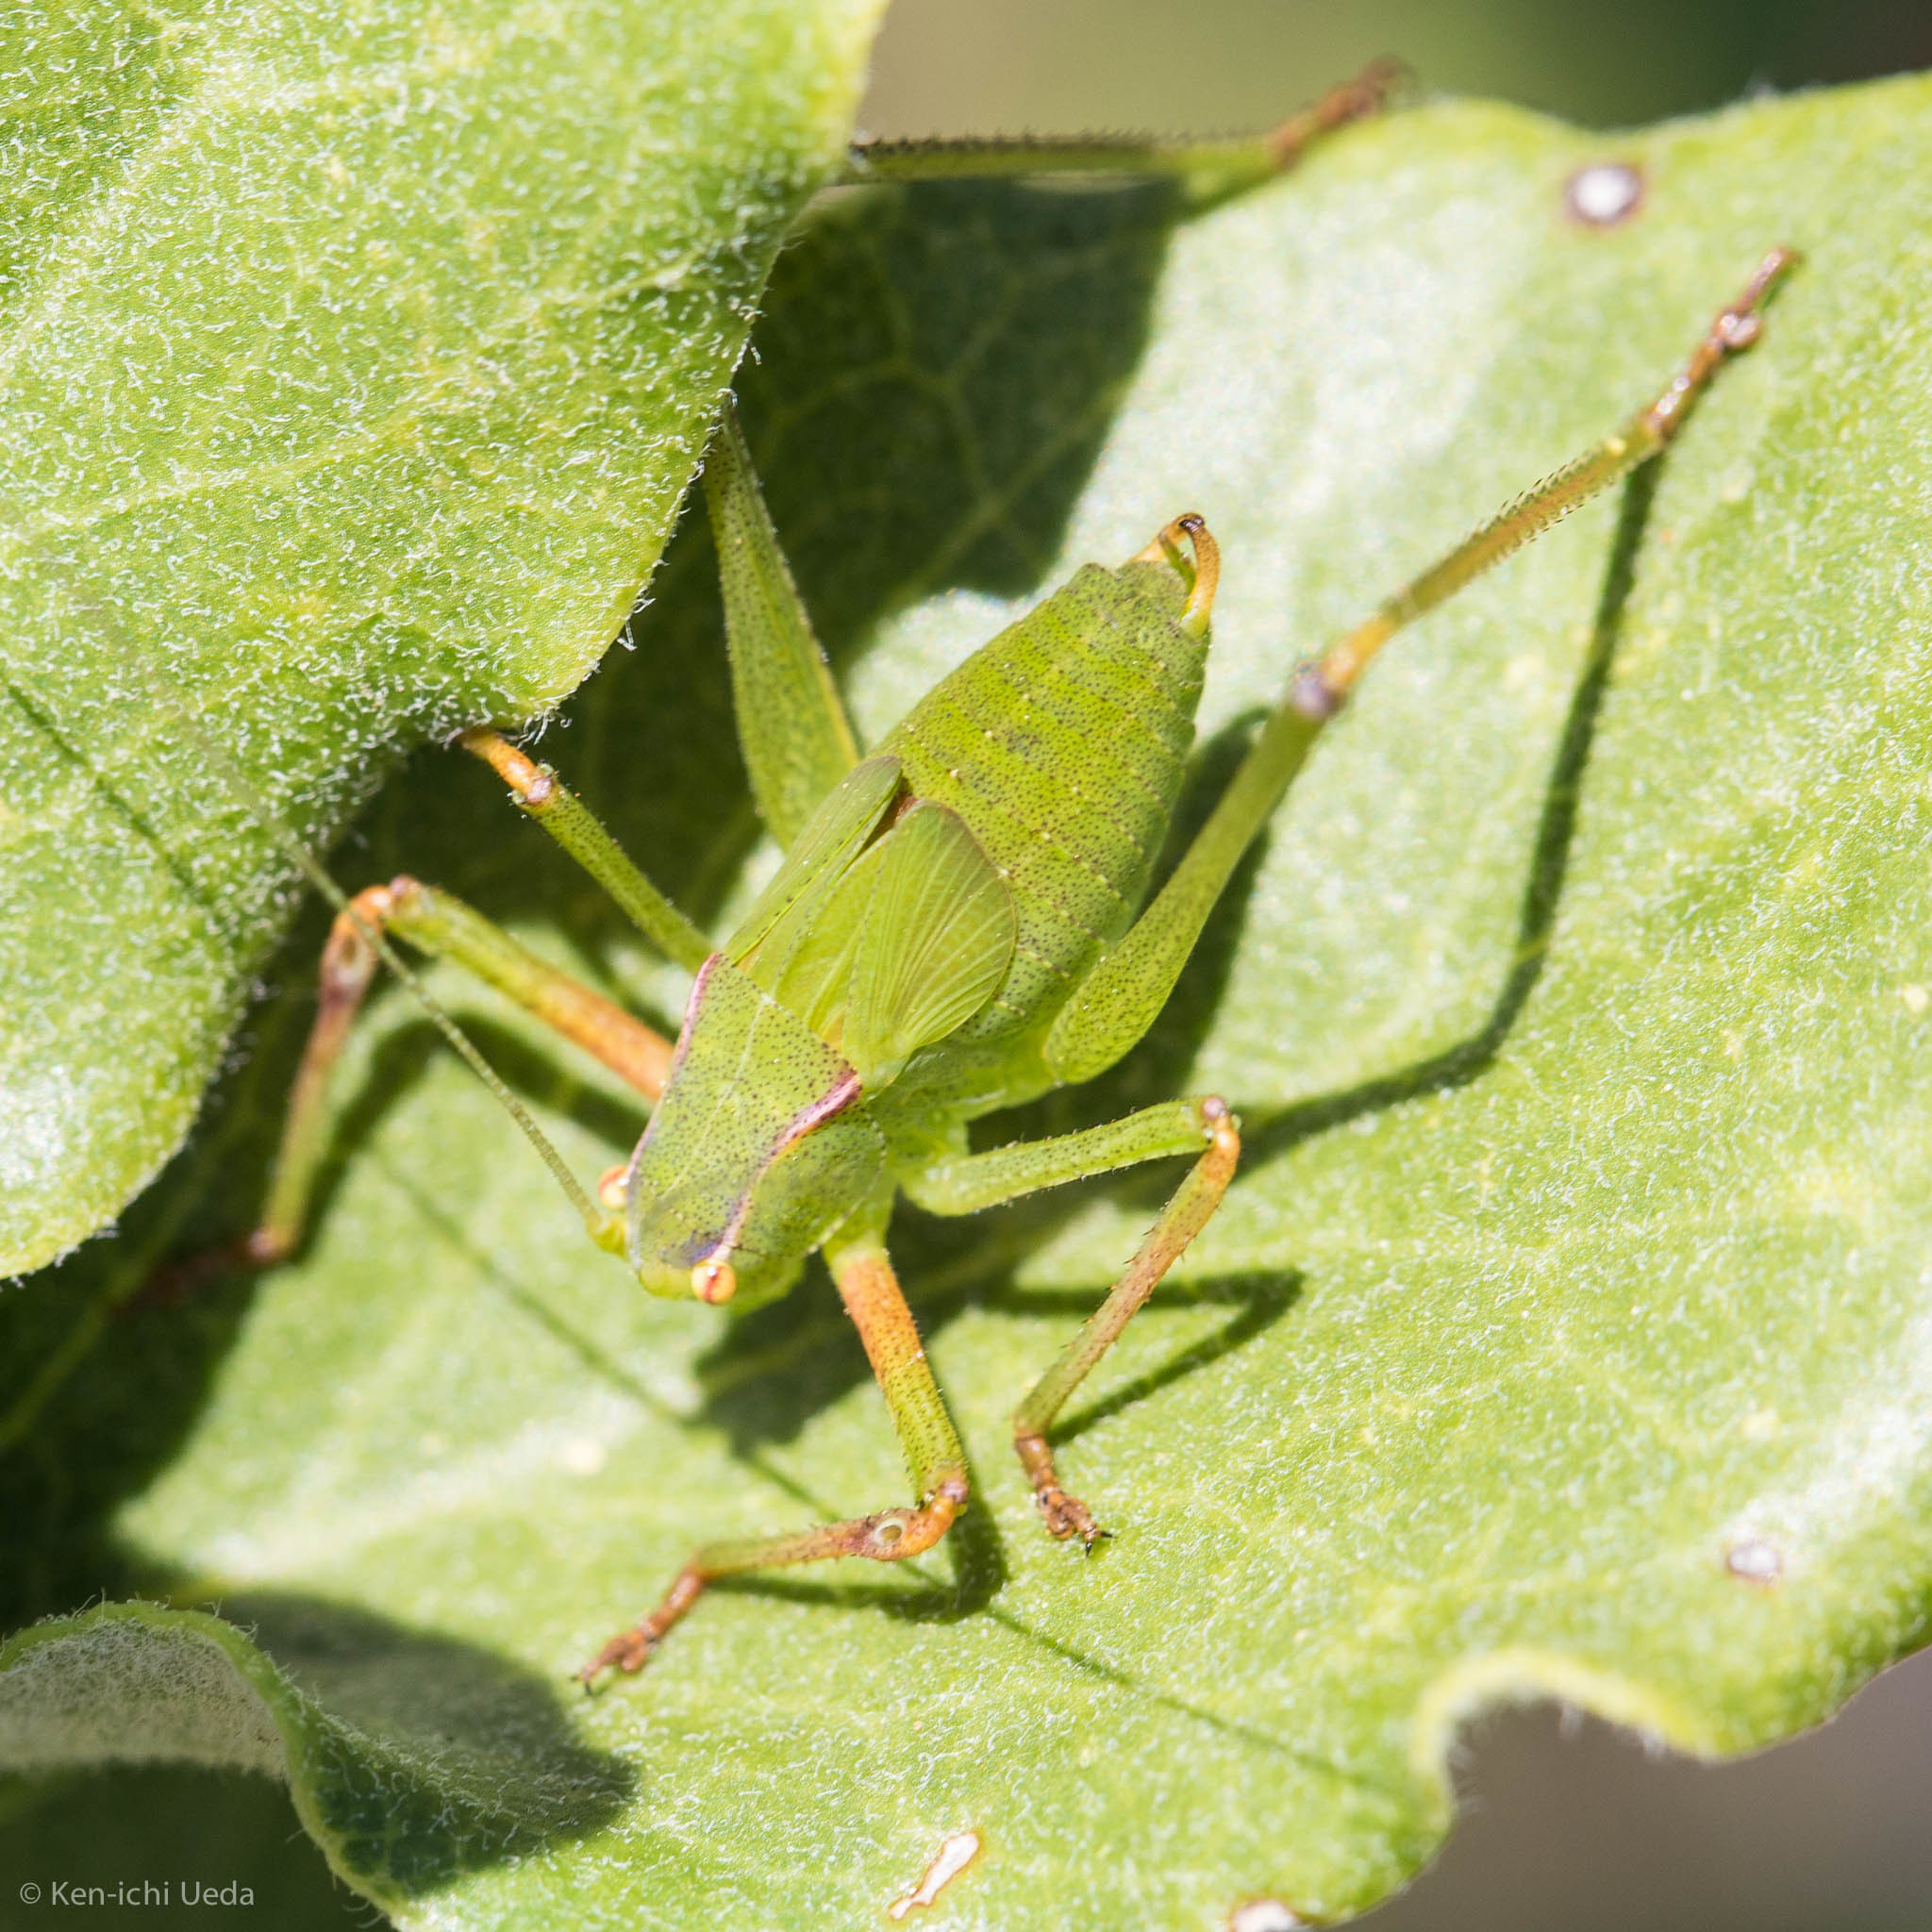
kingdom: Animalia
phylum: Arthropoda
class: Insecta
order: Orthoptera
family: Tettigoniidae
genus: Platylyra
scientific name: Platylyra californica
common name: Chaparral false katydid
